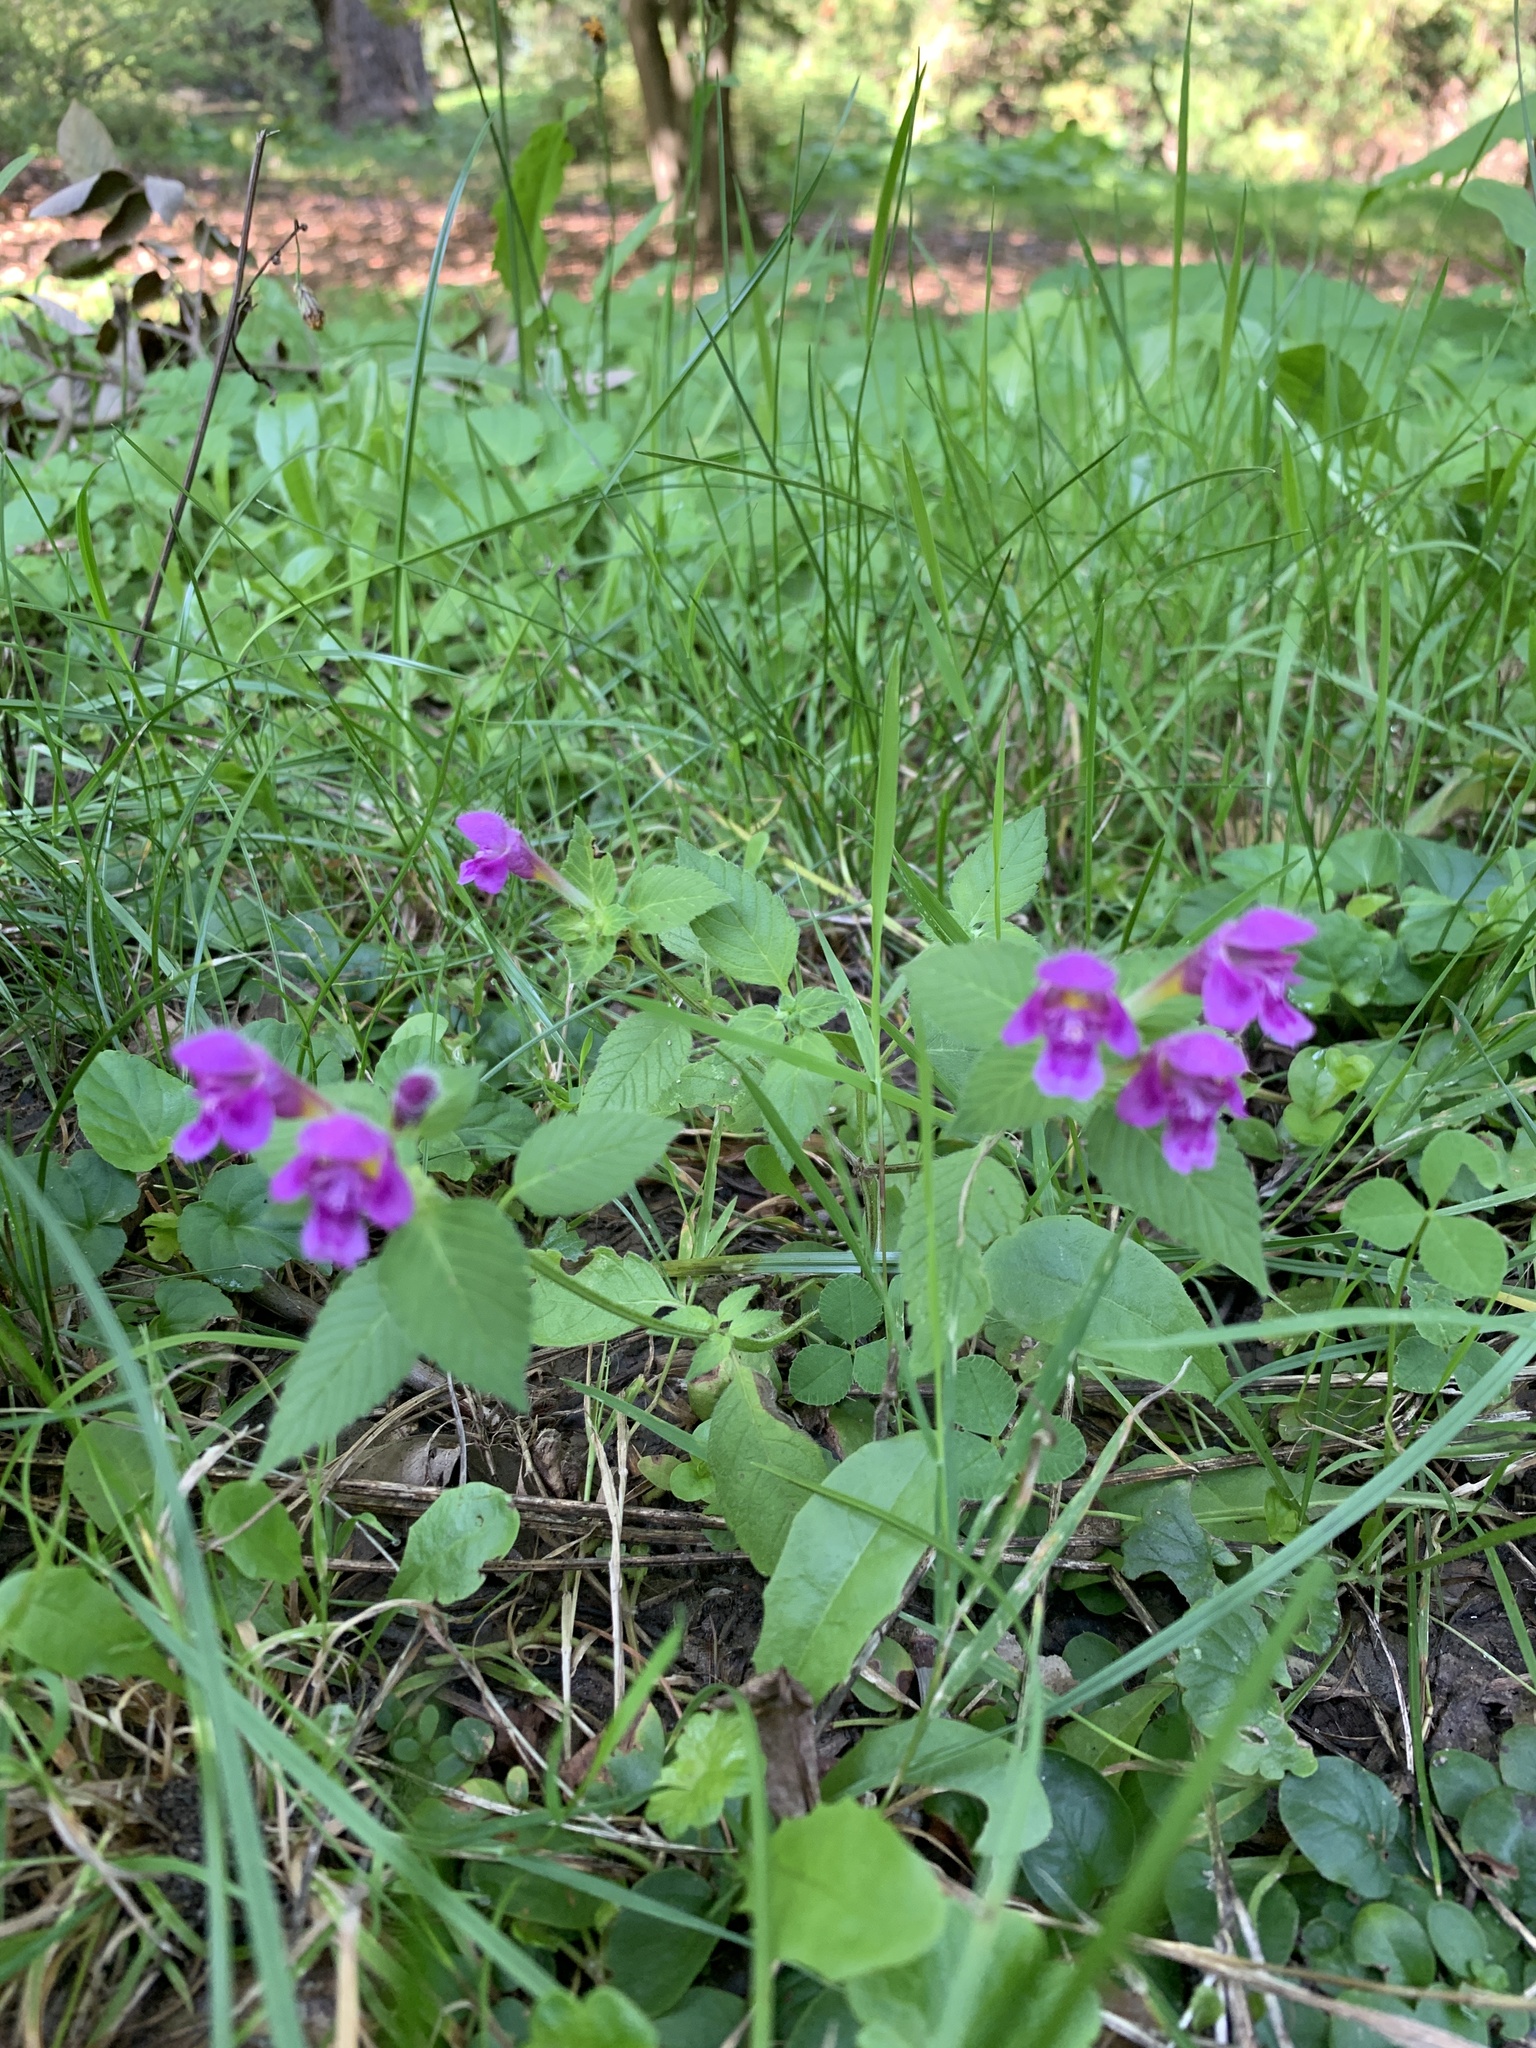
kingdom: Plantae
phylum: Tracheophyta
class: Magnoliopsida
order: Lamiales
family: Lamiaceae
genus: Galeopsis
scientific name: Galeopsis pubescens
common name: Downy hemp-nettle
